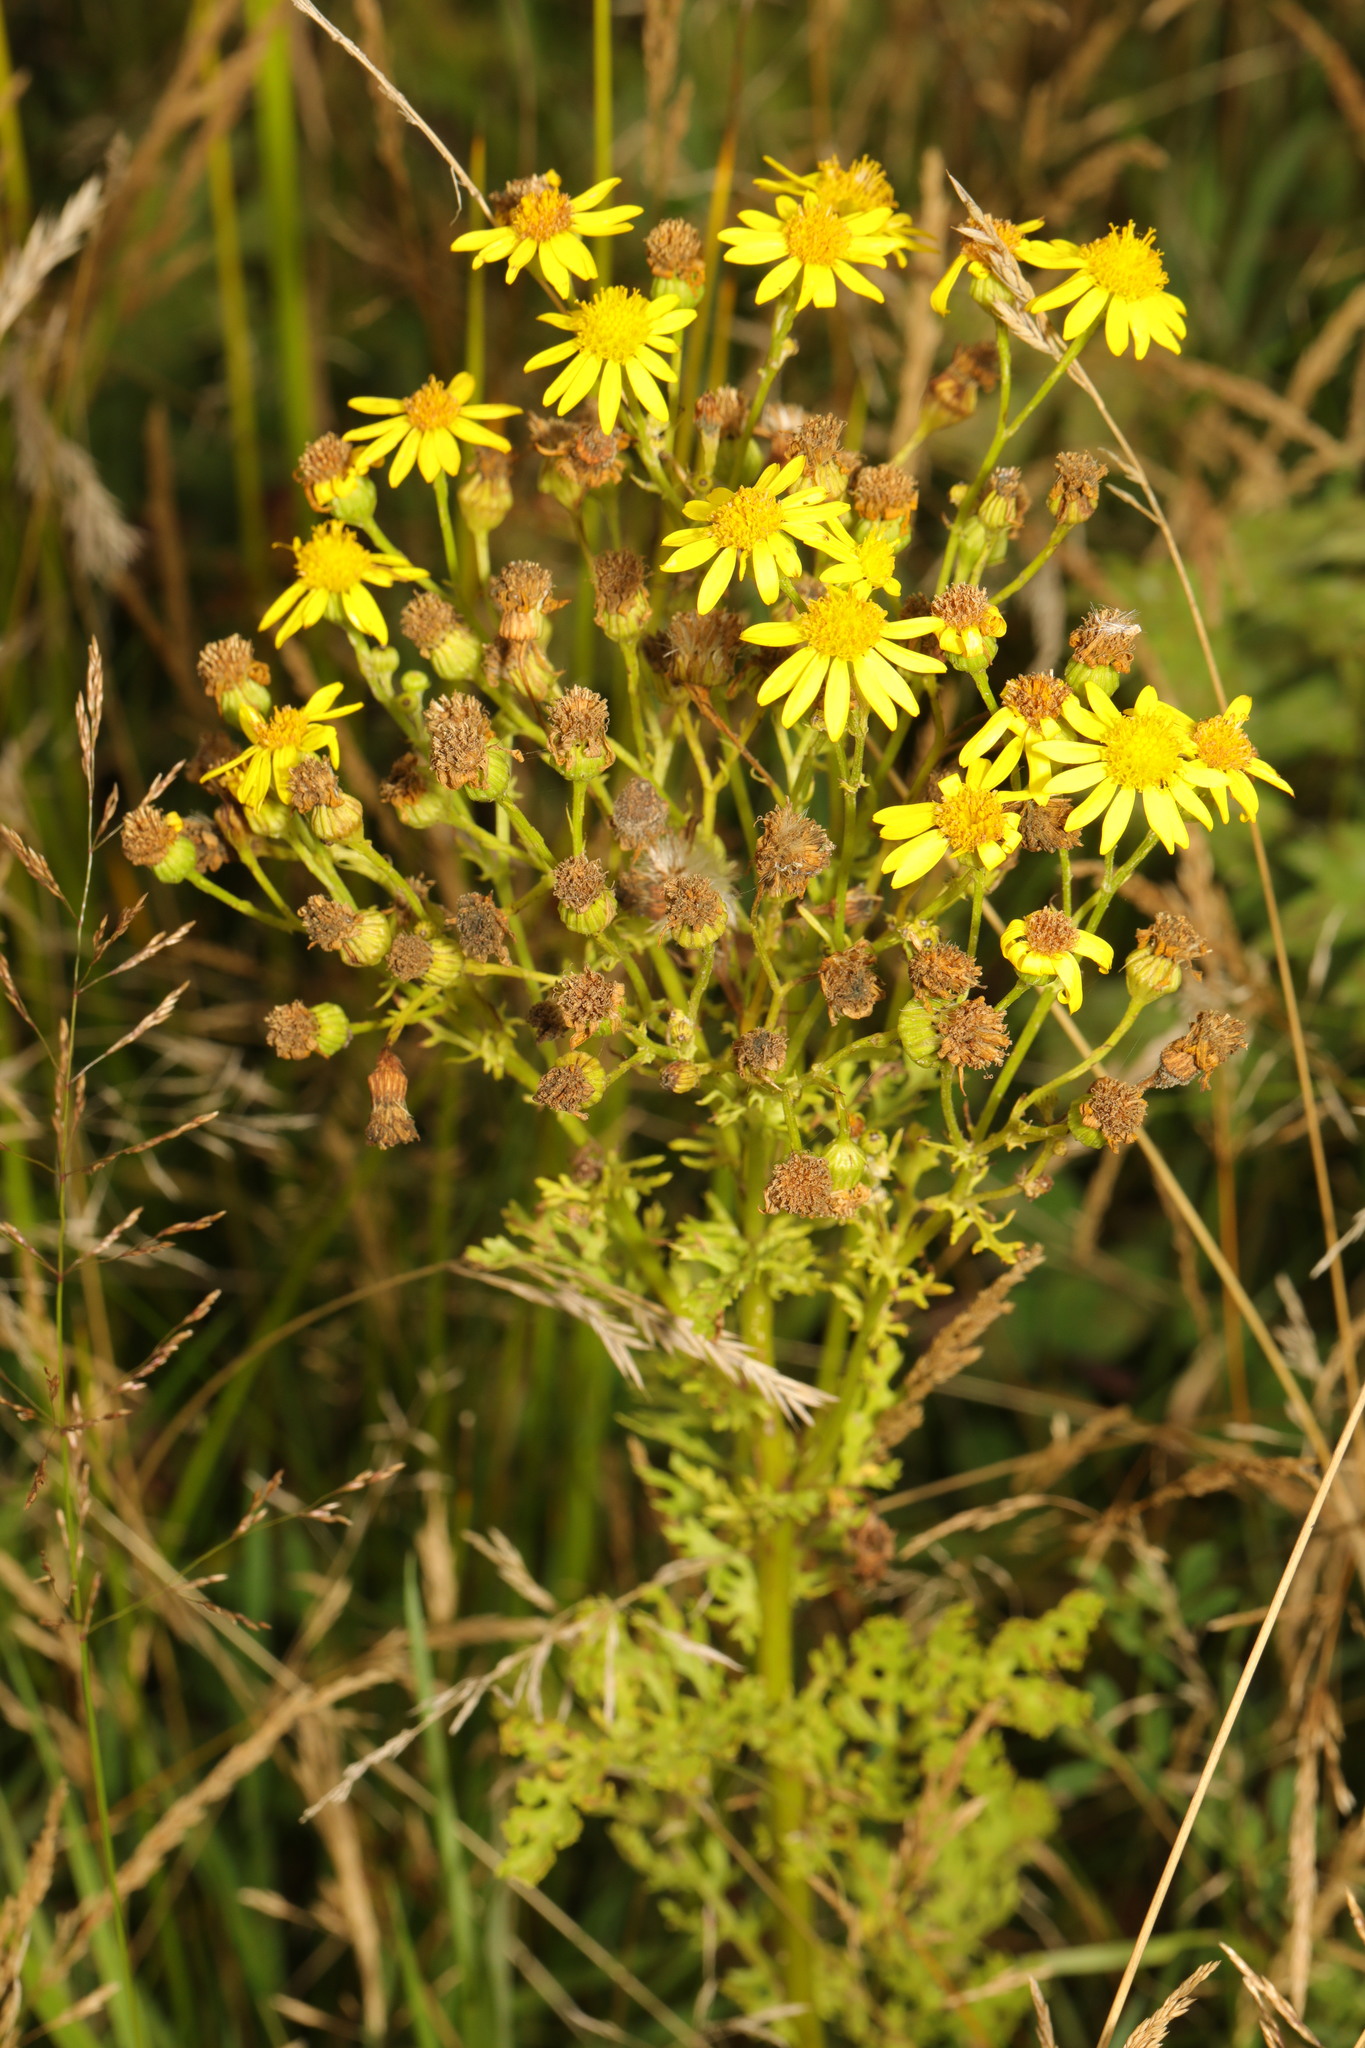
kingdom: Plantae
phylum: Tracheophyta
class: Magnoliopsida
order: Asterales
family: Asteraceae
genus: Jacobaea
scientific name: Jacobaea vulgaris
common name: Stinking willie
